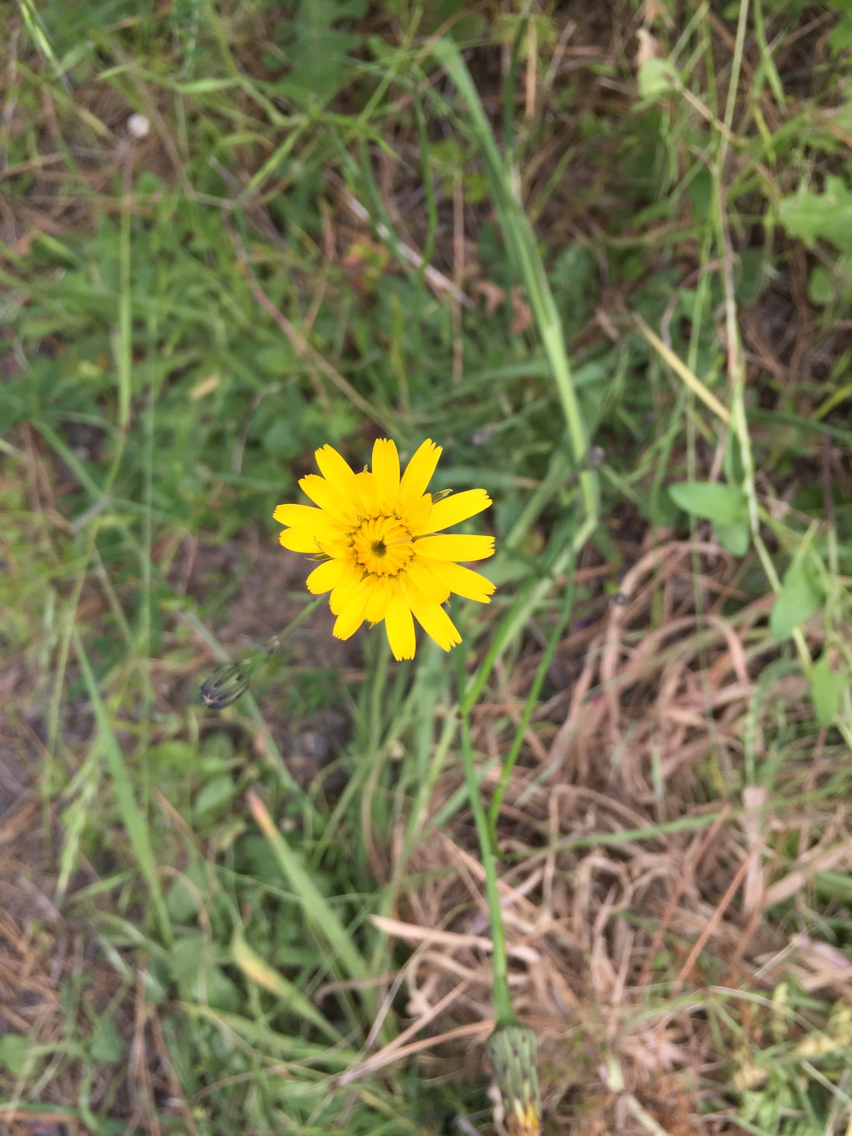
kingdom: Plantae
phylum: Tracheophyta
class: Magnoliopsida
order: Asterales
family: Asteraceae
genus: Hypochaeris
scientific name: Hypochaeris radicata
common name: Flatweed
